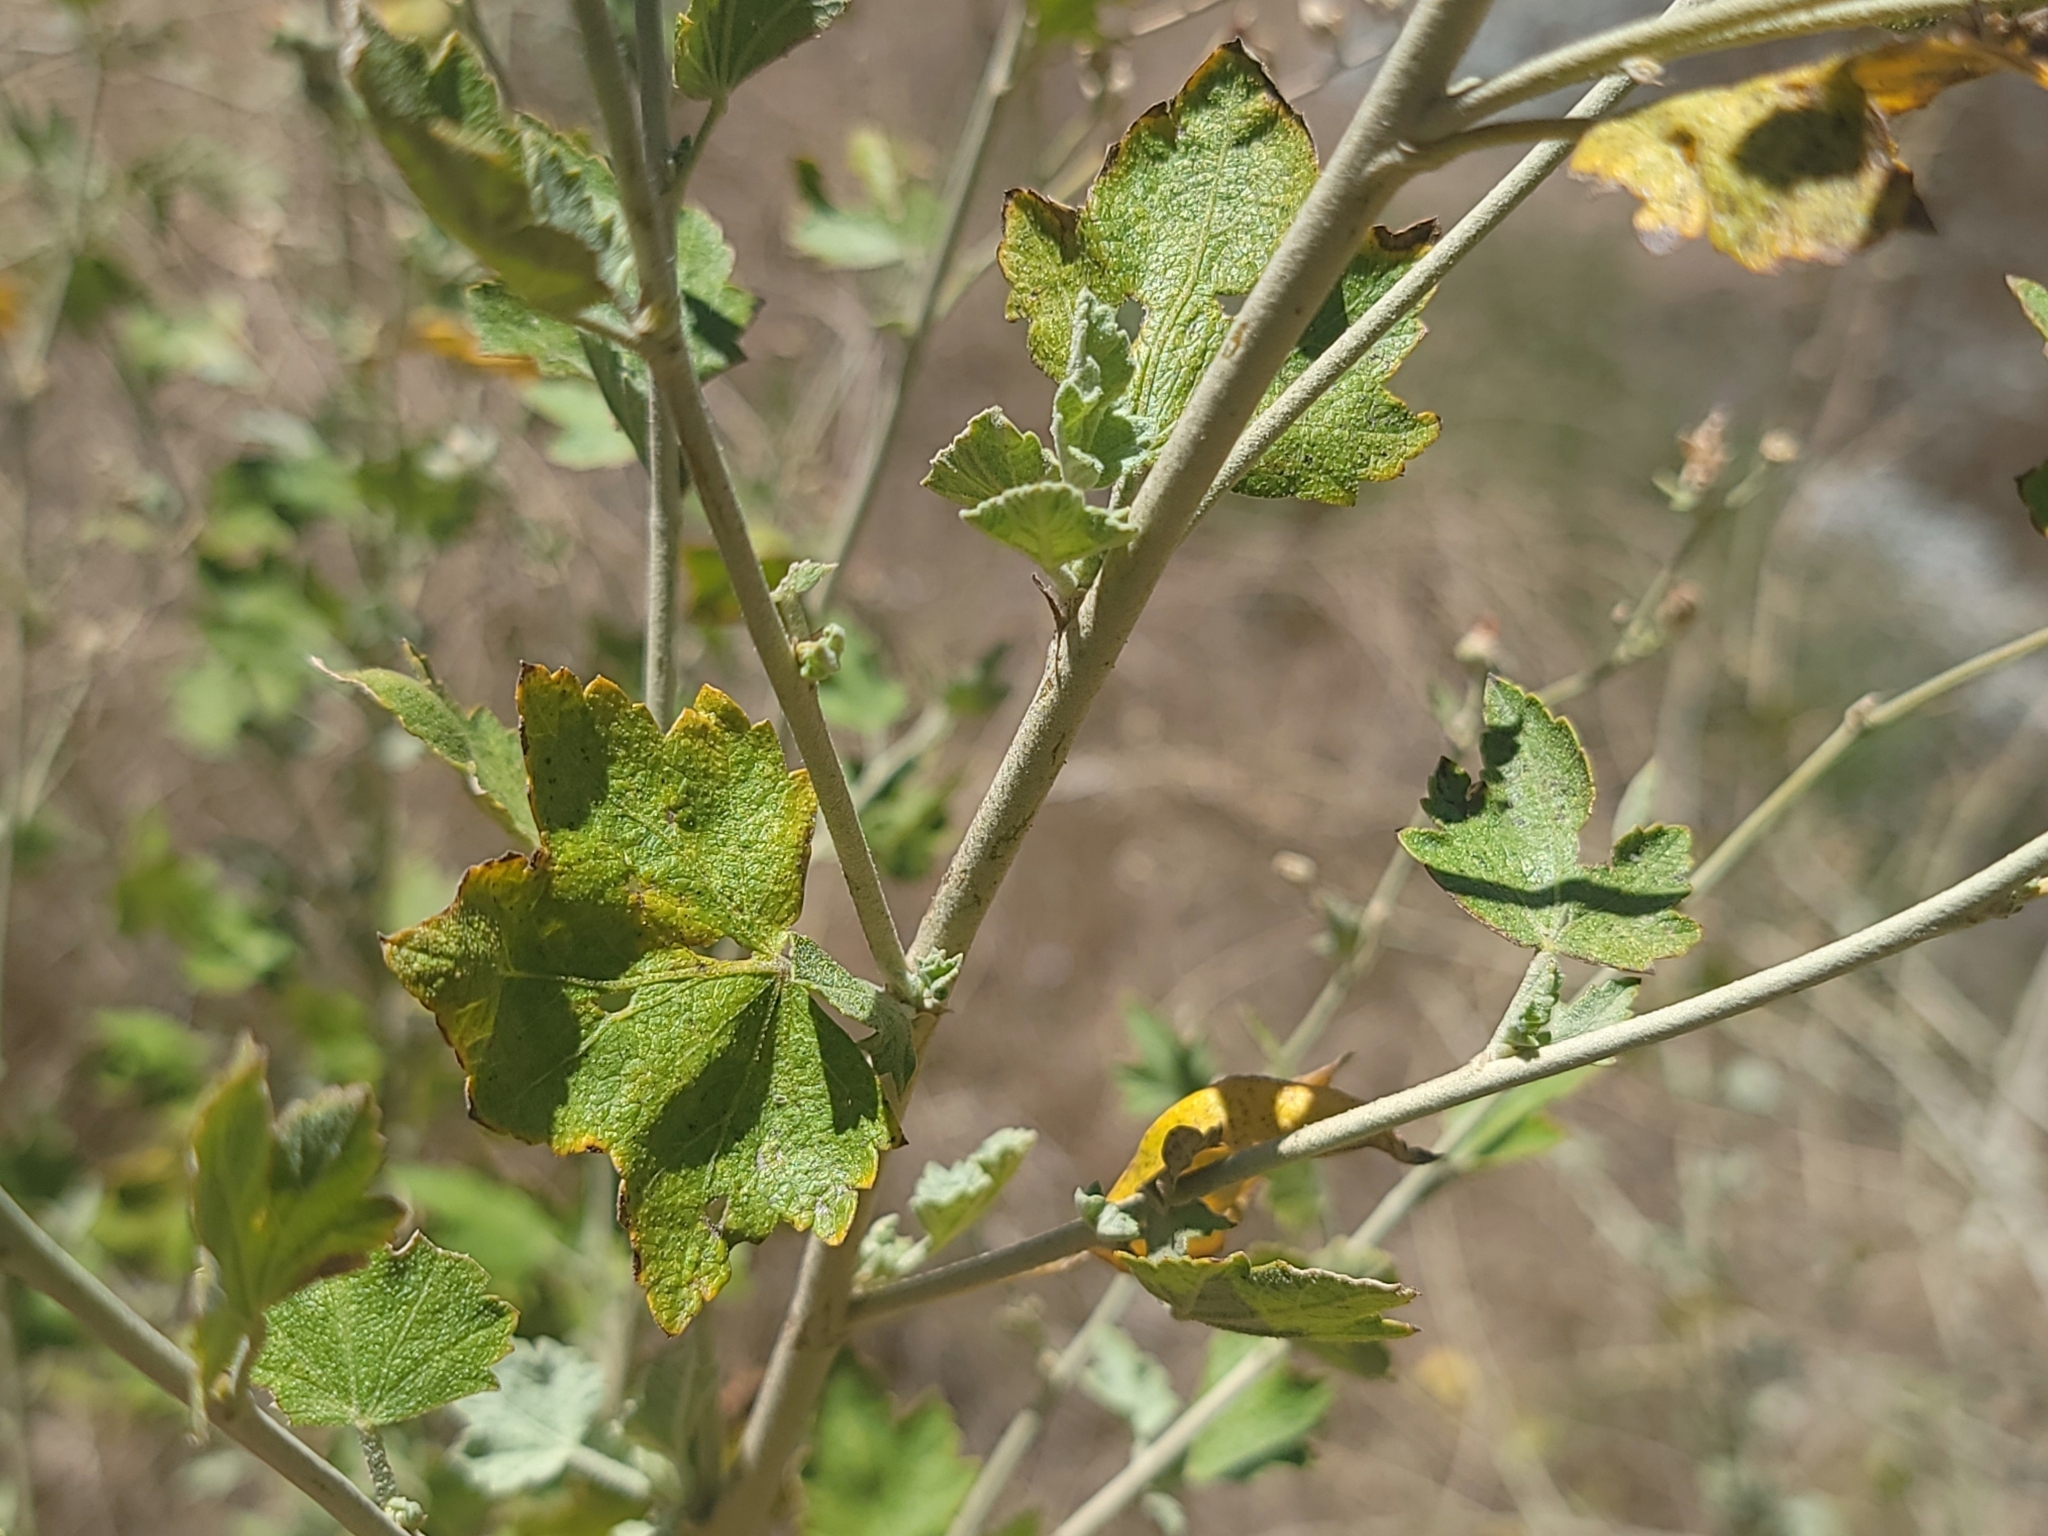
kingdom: Plantae
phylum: Tracheophyta
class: Magnoliopsida
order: Malvales
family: Malvaceae
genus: Malacothamnus
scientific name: Malacothamnus fasciculatus
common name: Sant cruz island bush-mallow
